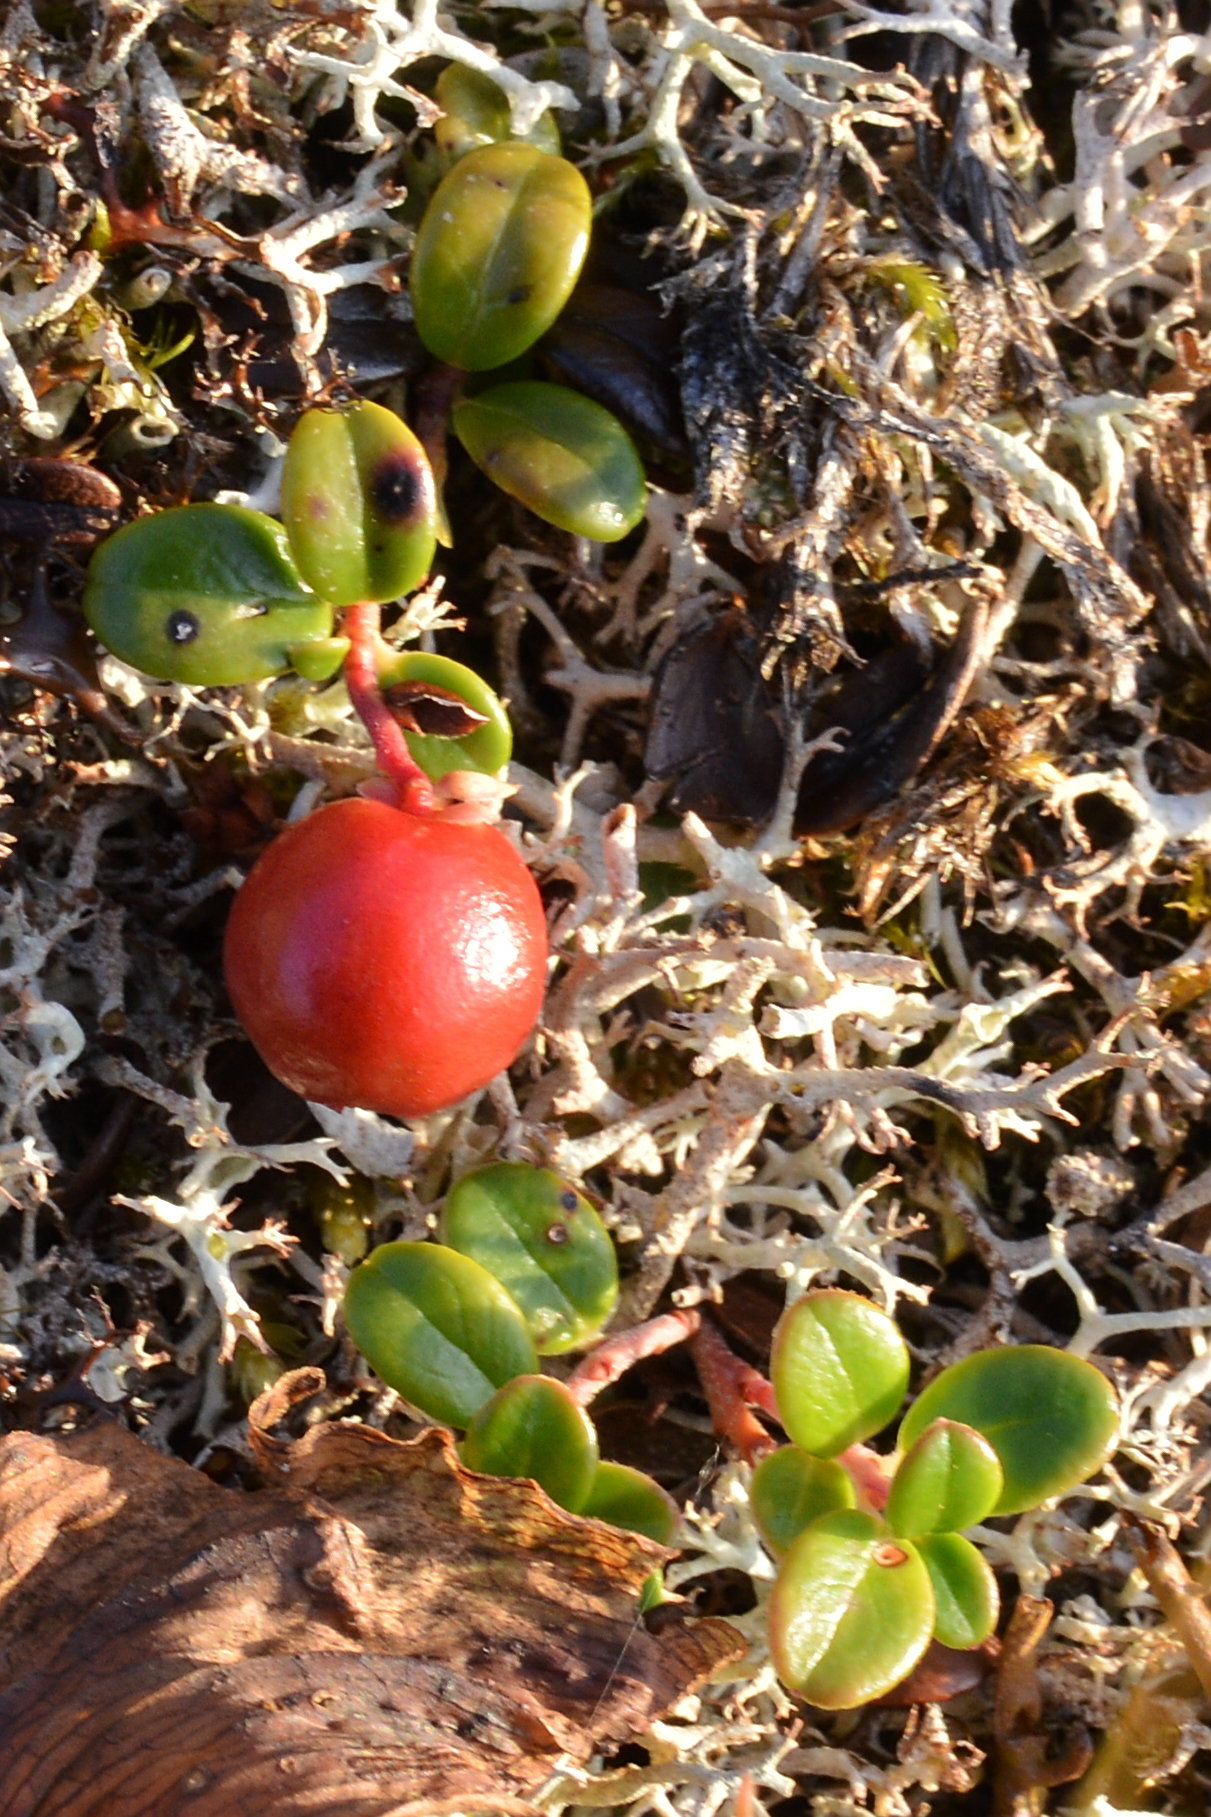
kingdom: Plantae
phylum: Tracheophyta
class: Magnoliopsida
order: Ericales
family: Ericaceae
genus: Vaccinium
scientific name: Vaccinium vitis-idaea
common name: Cowberry
